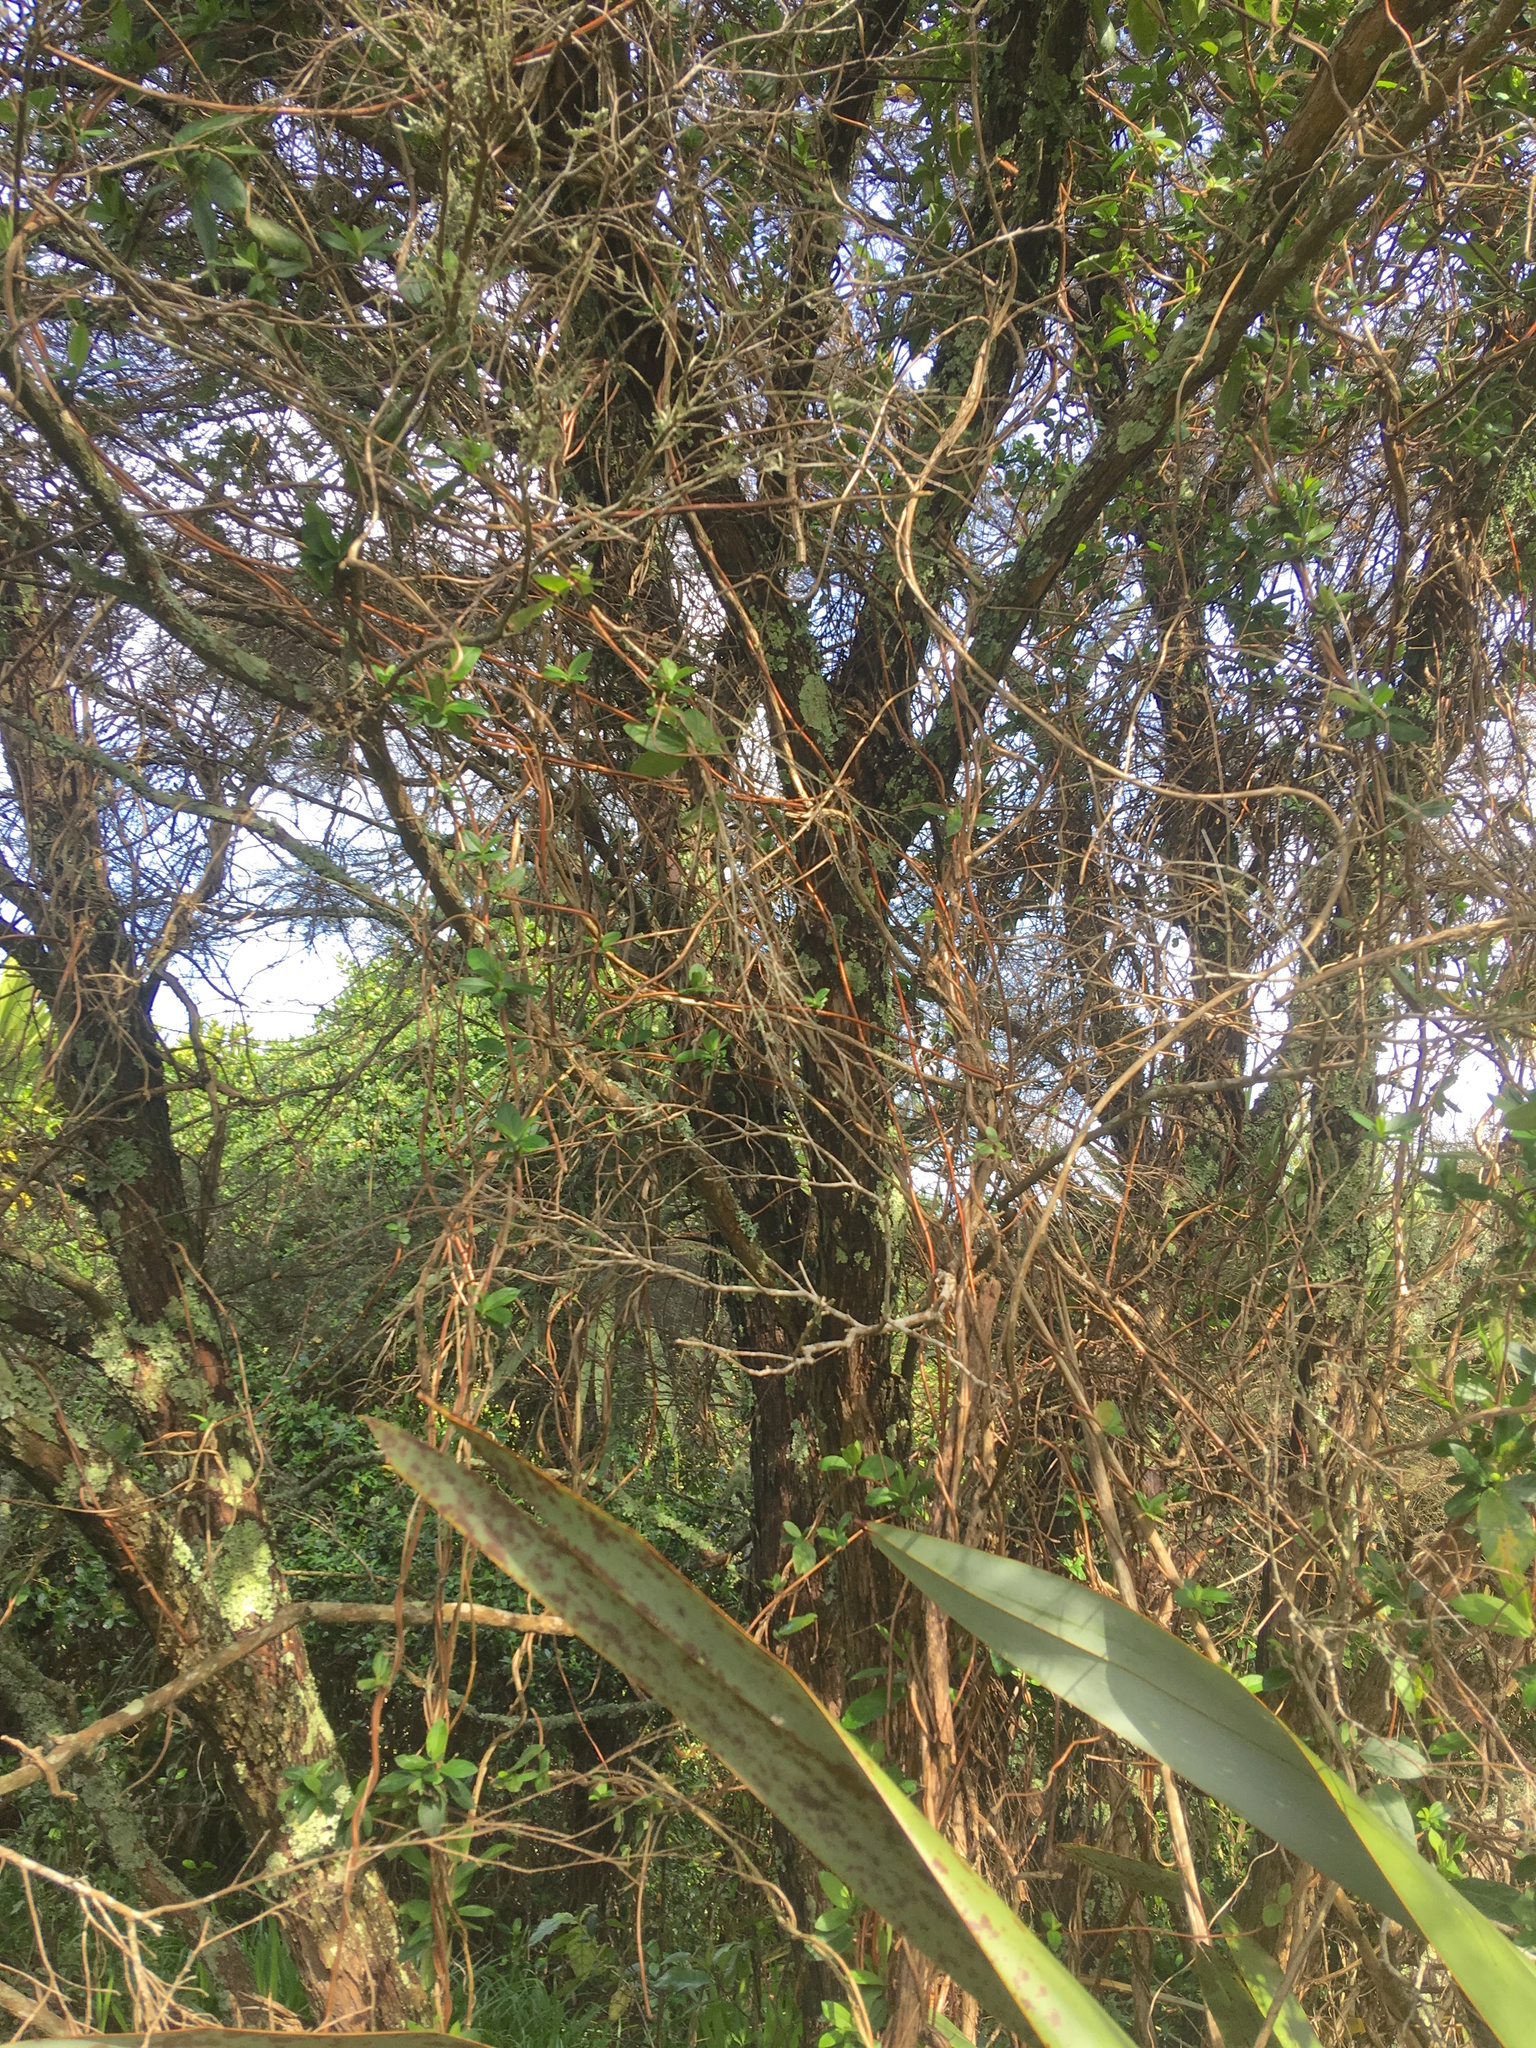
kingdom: Plantae
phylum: Tracheophyta
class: Magnoliopsida
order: Dipsacales
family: Caprifoliaceae
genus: Lonicera
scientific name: Lonicera japonica
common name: Japanese honeysuckle
